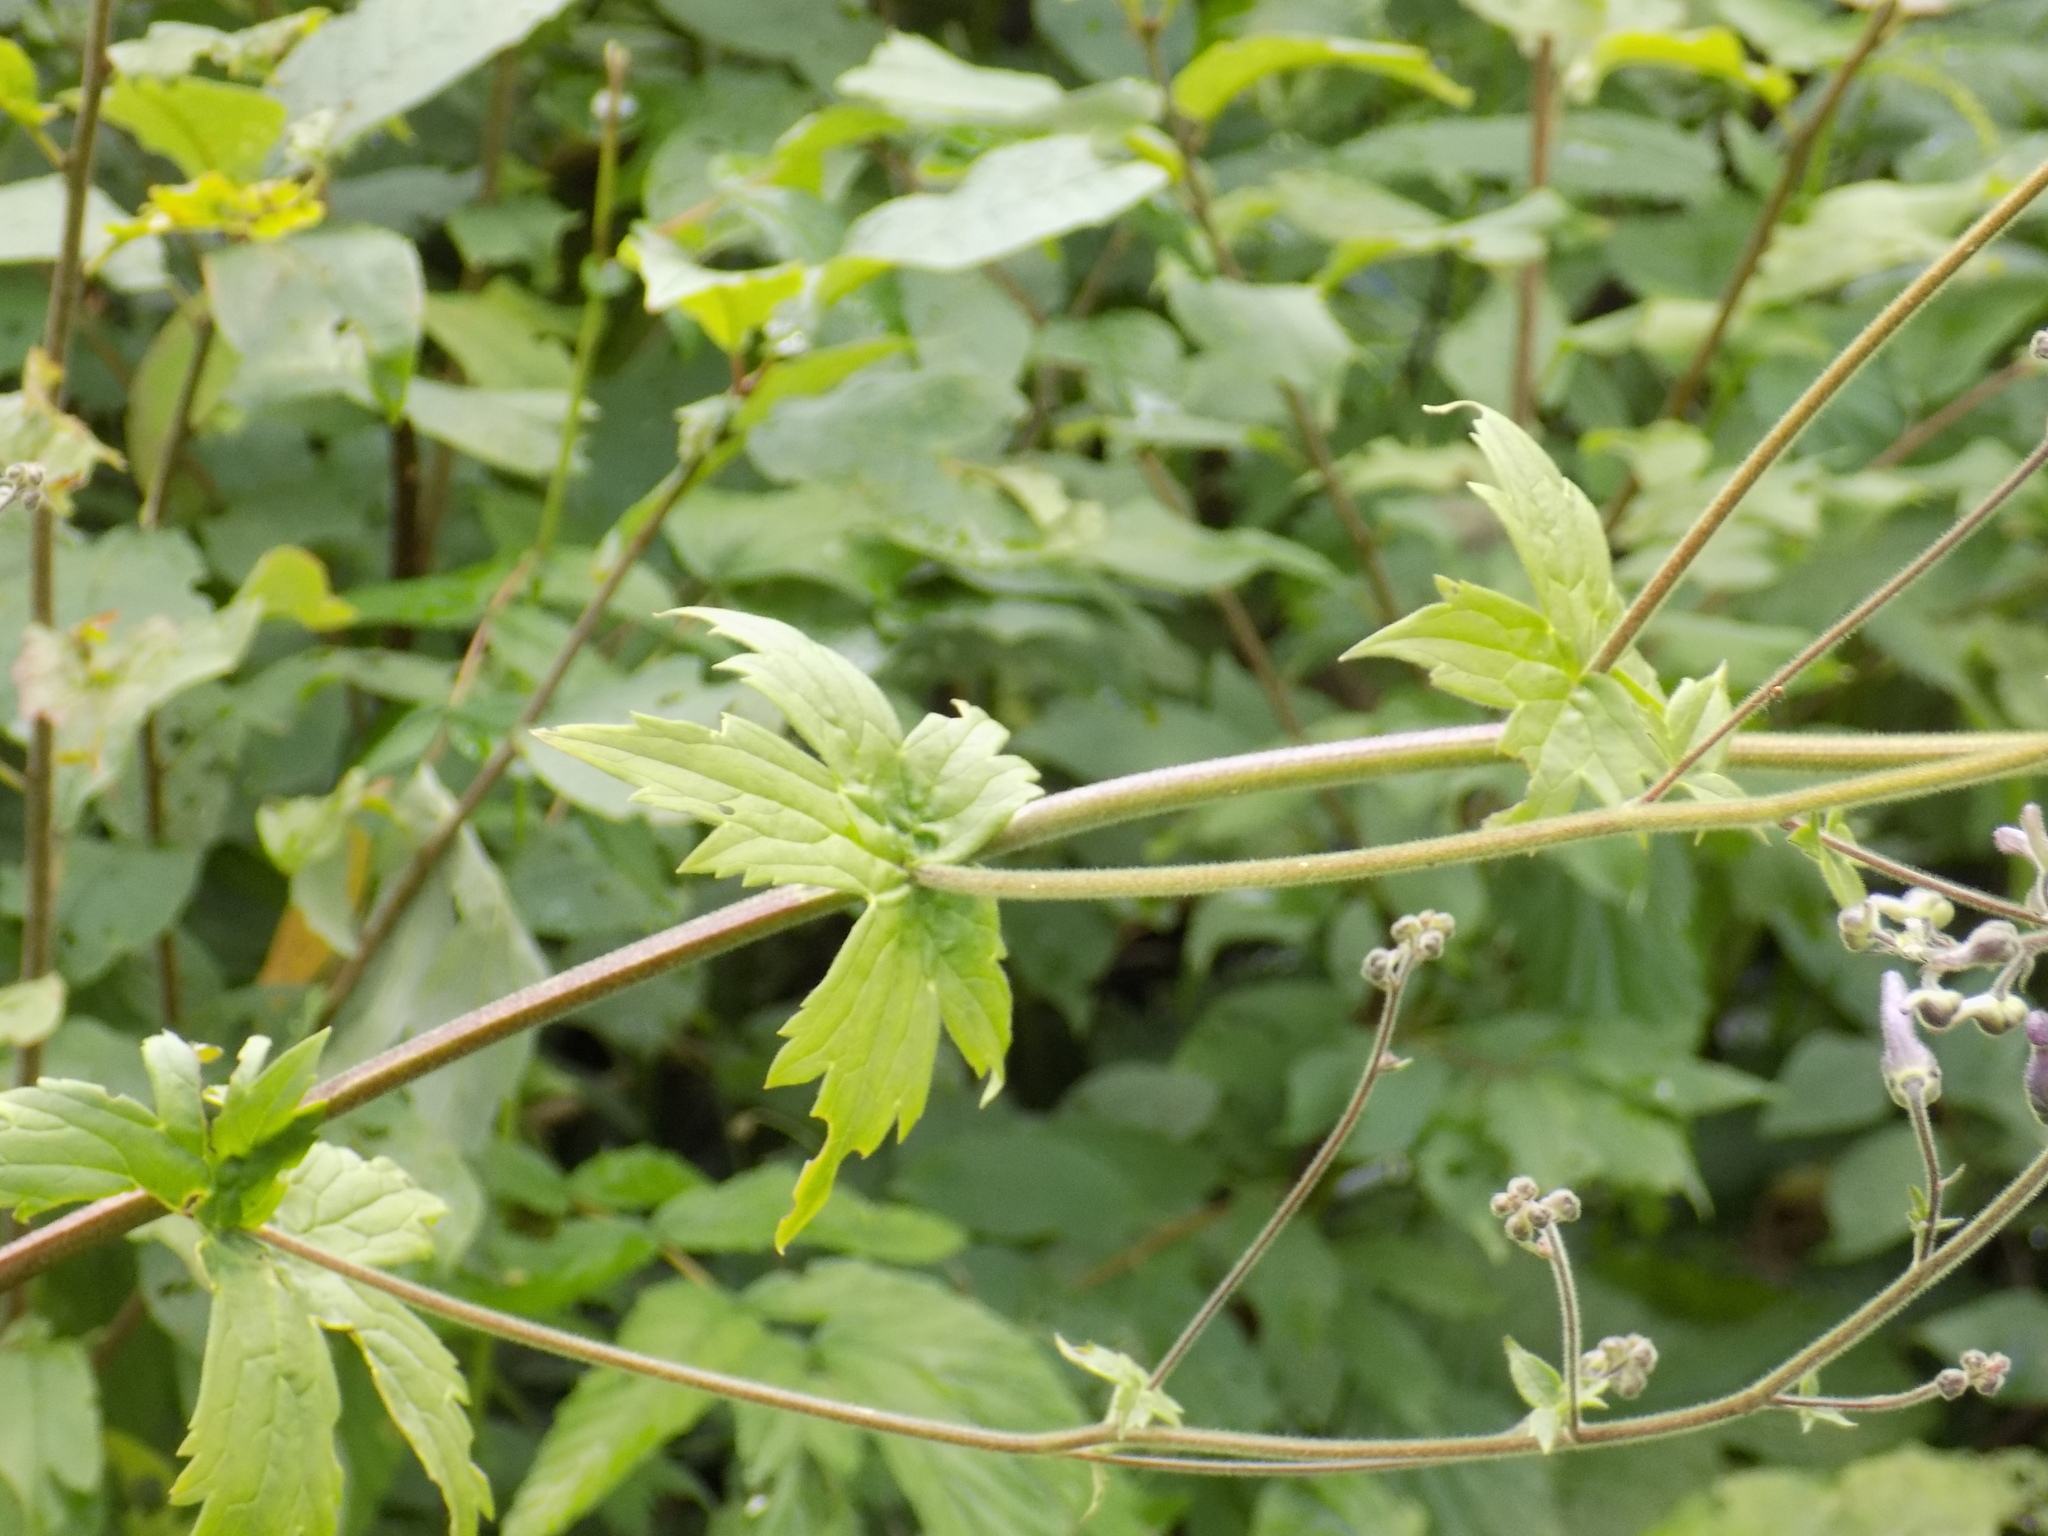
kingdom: Plantae
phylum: Tracheophyta
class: Magnoliopsida
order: Ranunculales
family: Ranunculaceae
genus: Aconitum
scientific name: Aconitum septentrionale
